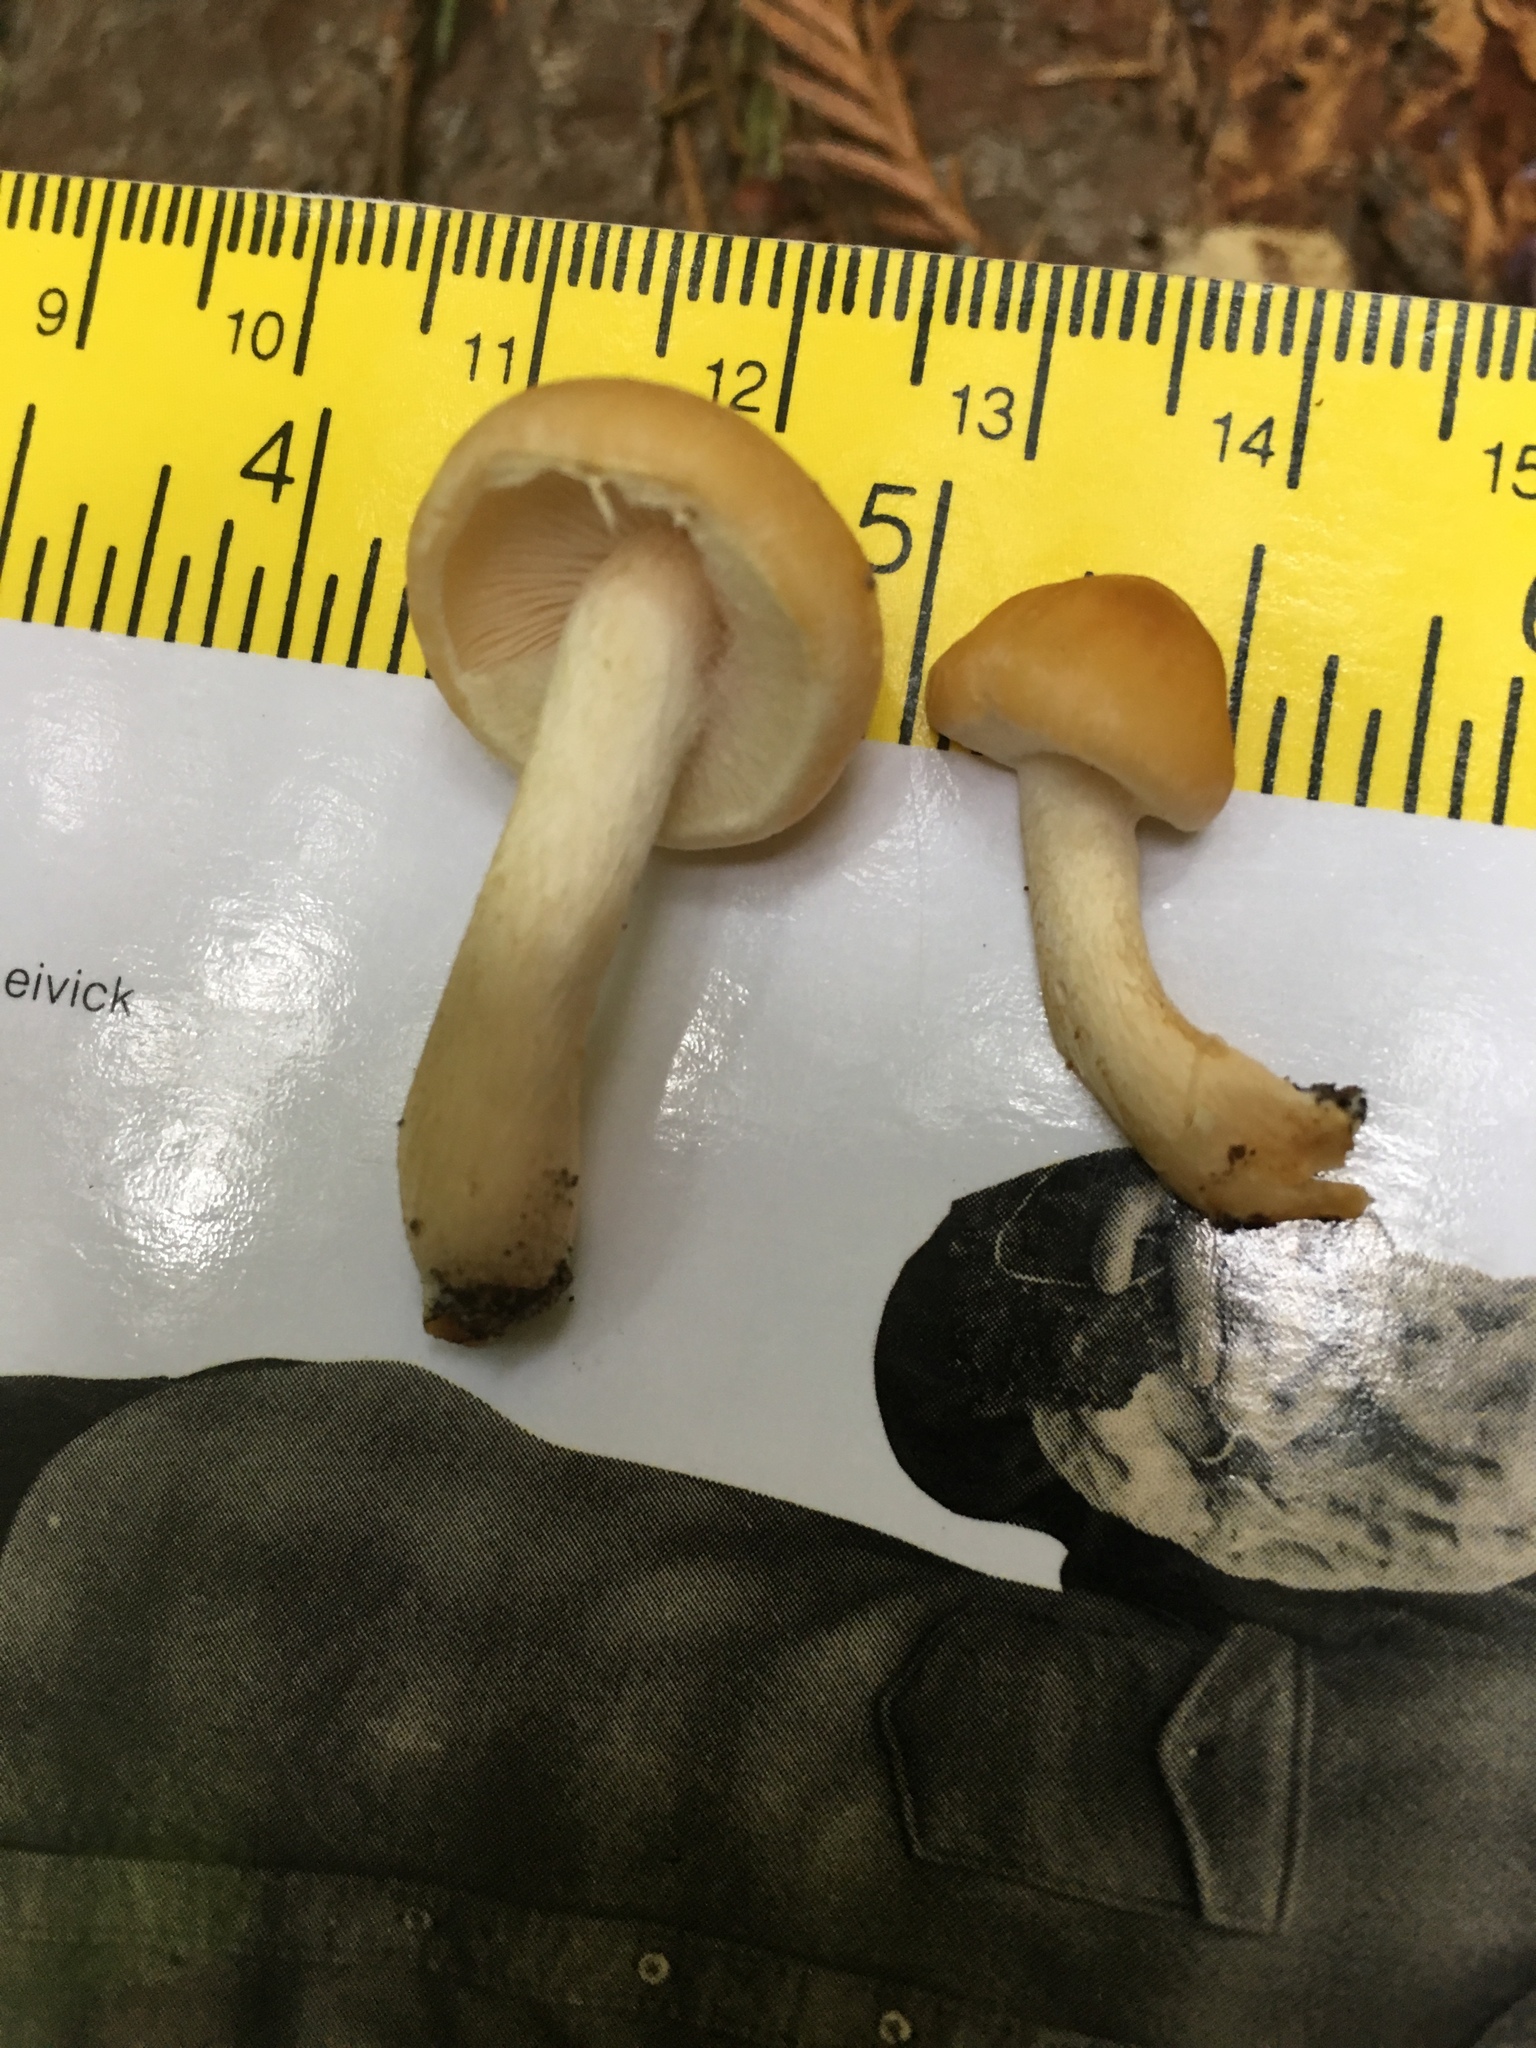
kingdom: Fungi
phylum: Basidiomycota
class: Agaricomycetes
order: Agaricales
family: Strophariaceae
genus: Hypholoma
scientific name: Hypholoma capnoides
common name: Conifer tuft
